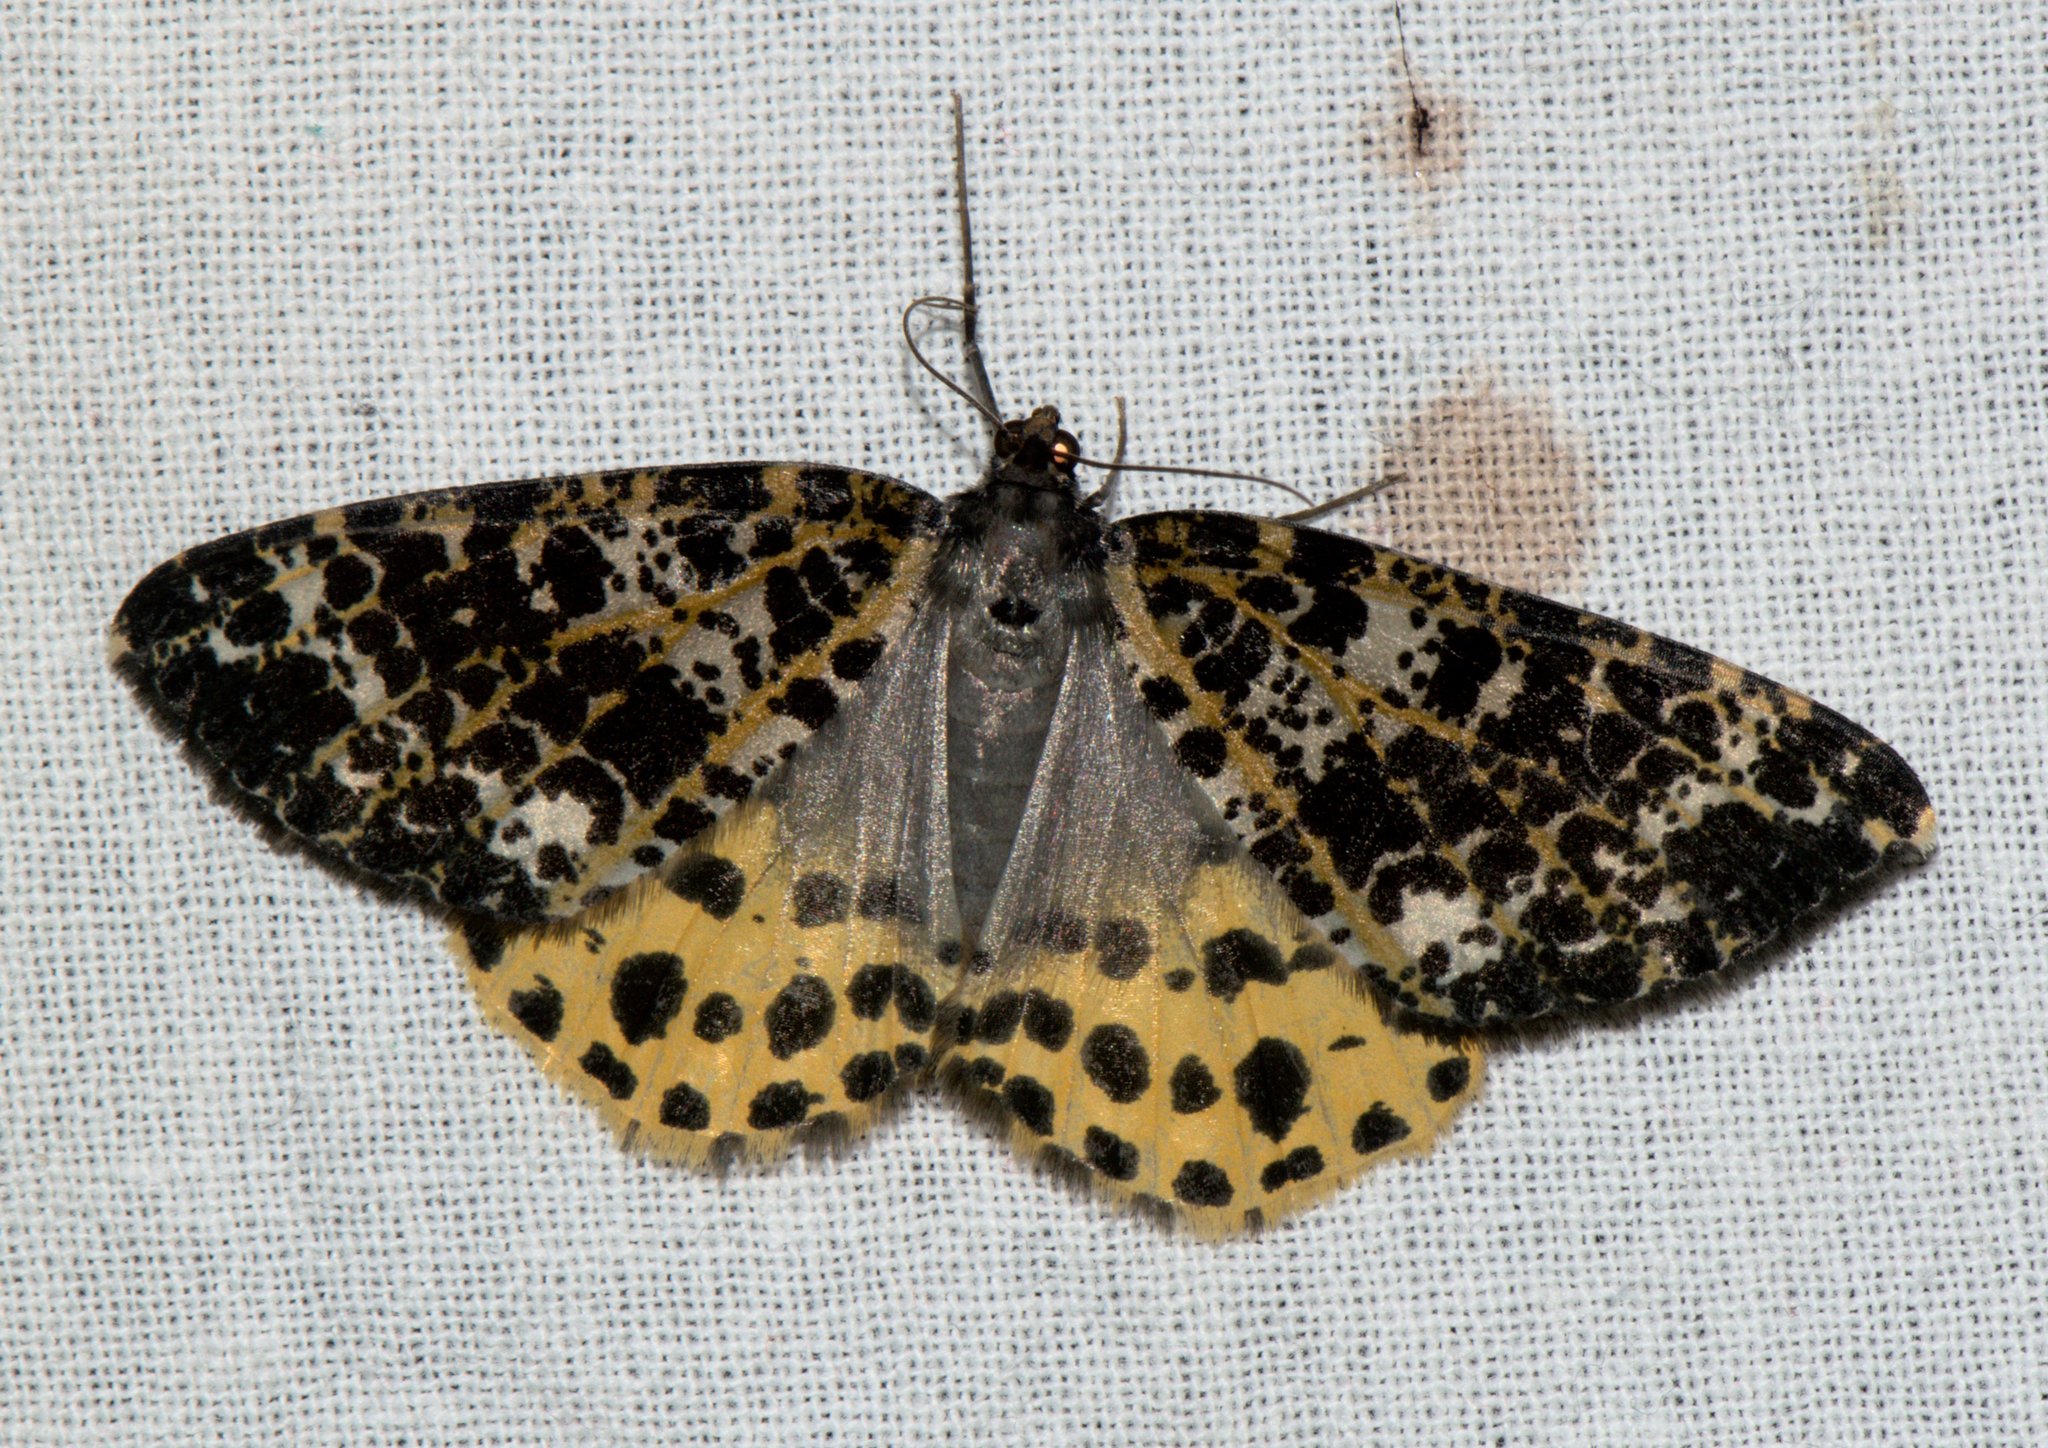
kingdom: Animalia
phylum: Arthropoda
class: Insecta
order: Lepidoptera
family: Geometridae
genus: Arichanna
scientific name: Arichanna sparsa
